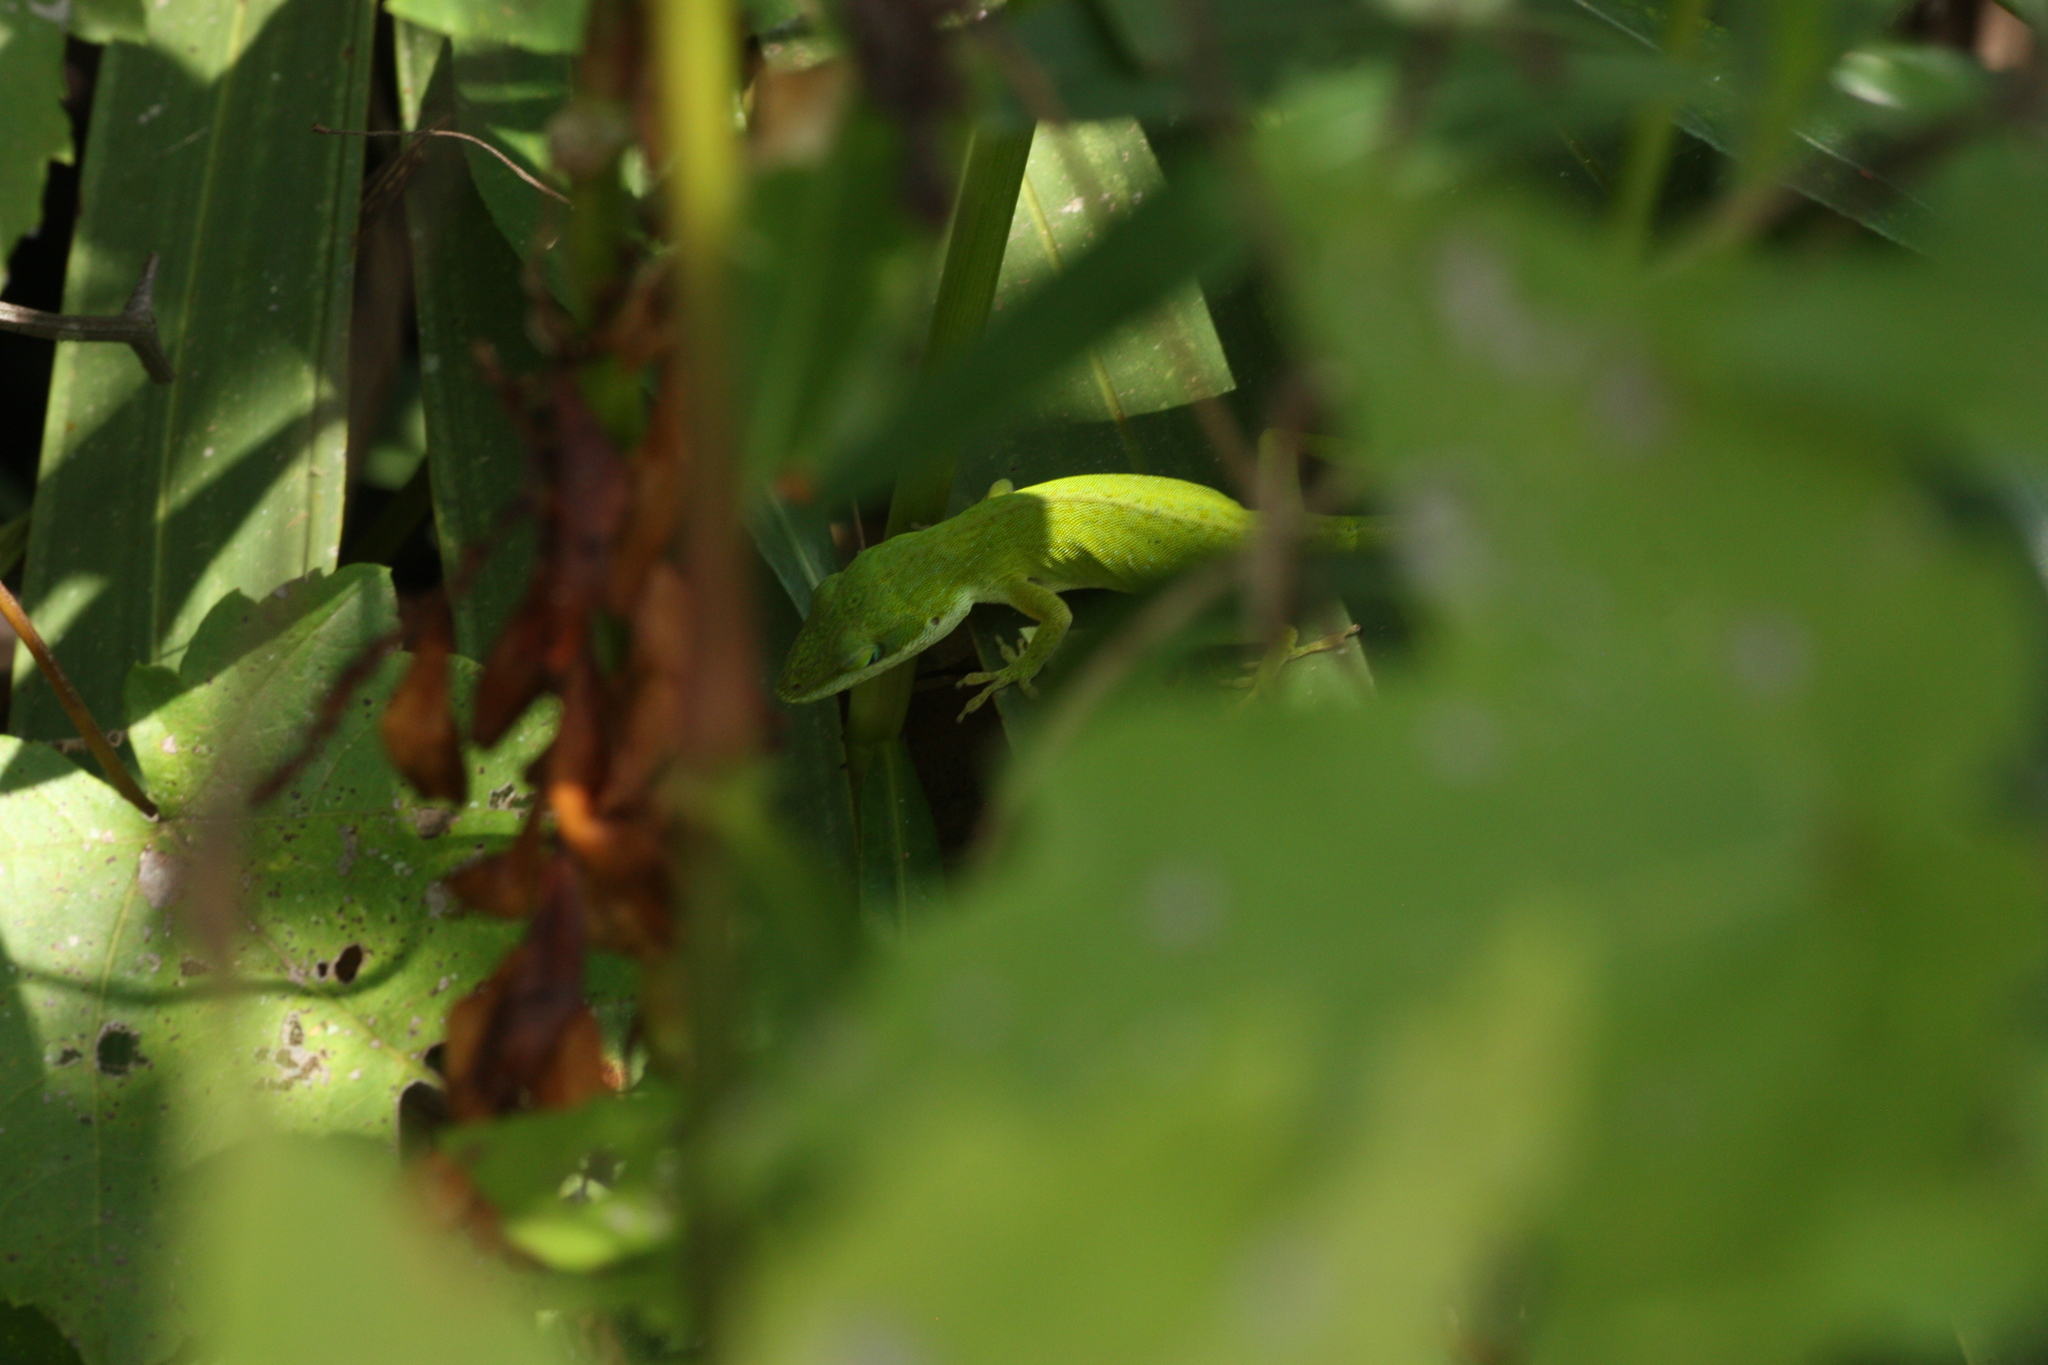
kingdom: Animalia
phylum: Chordata
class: Squamata
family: Dactyloidae
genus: Anolis
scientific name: Anolis carolinensis
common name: Green anole
